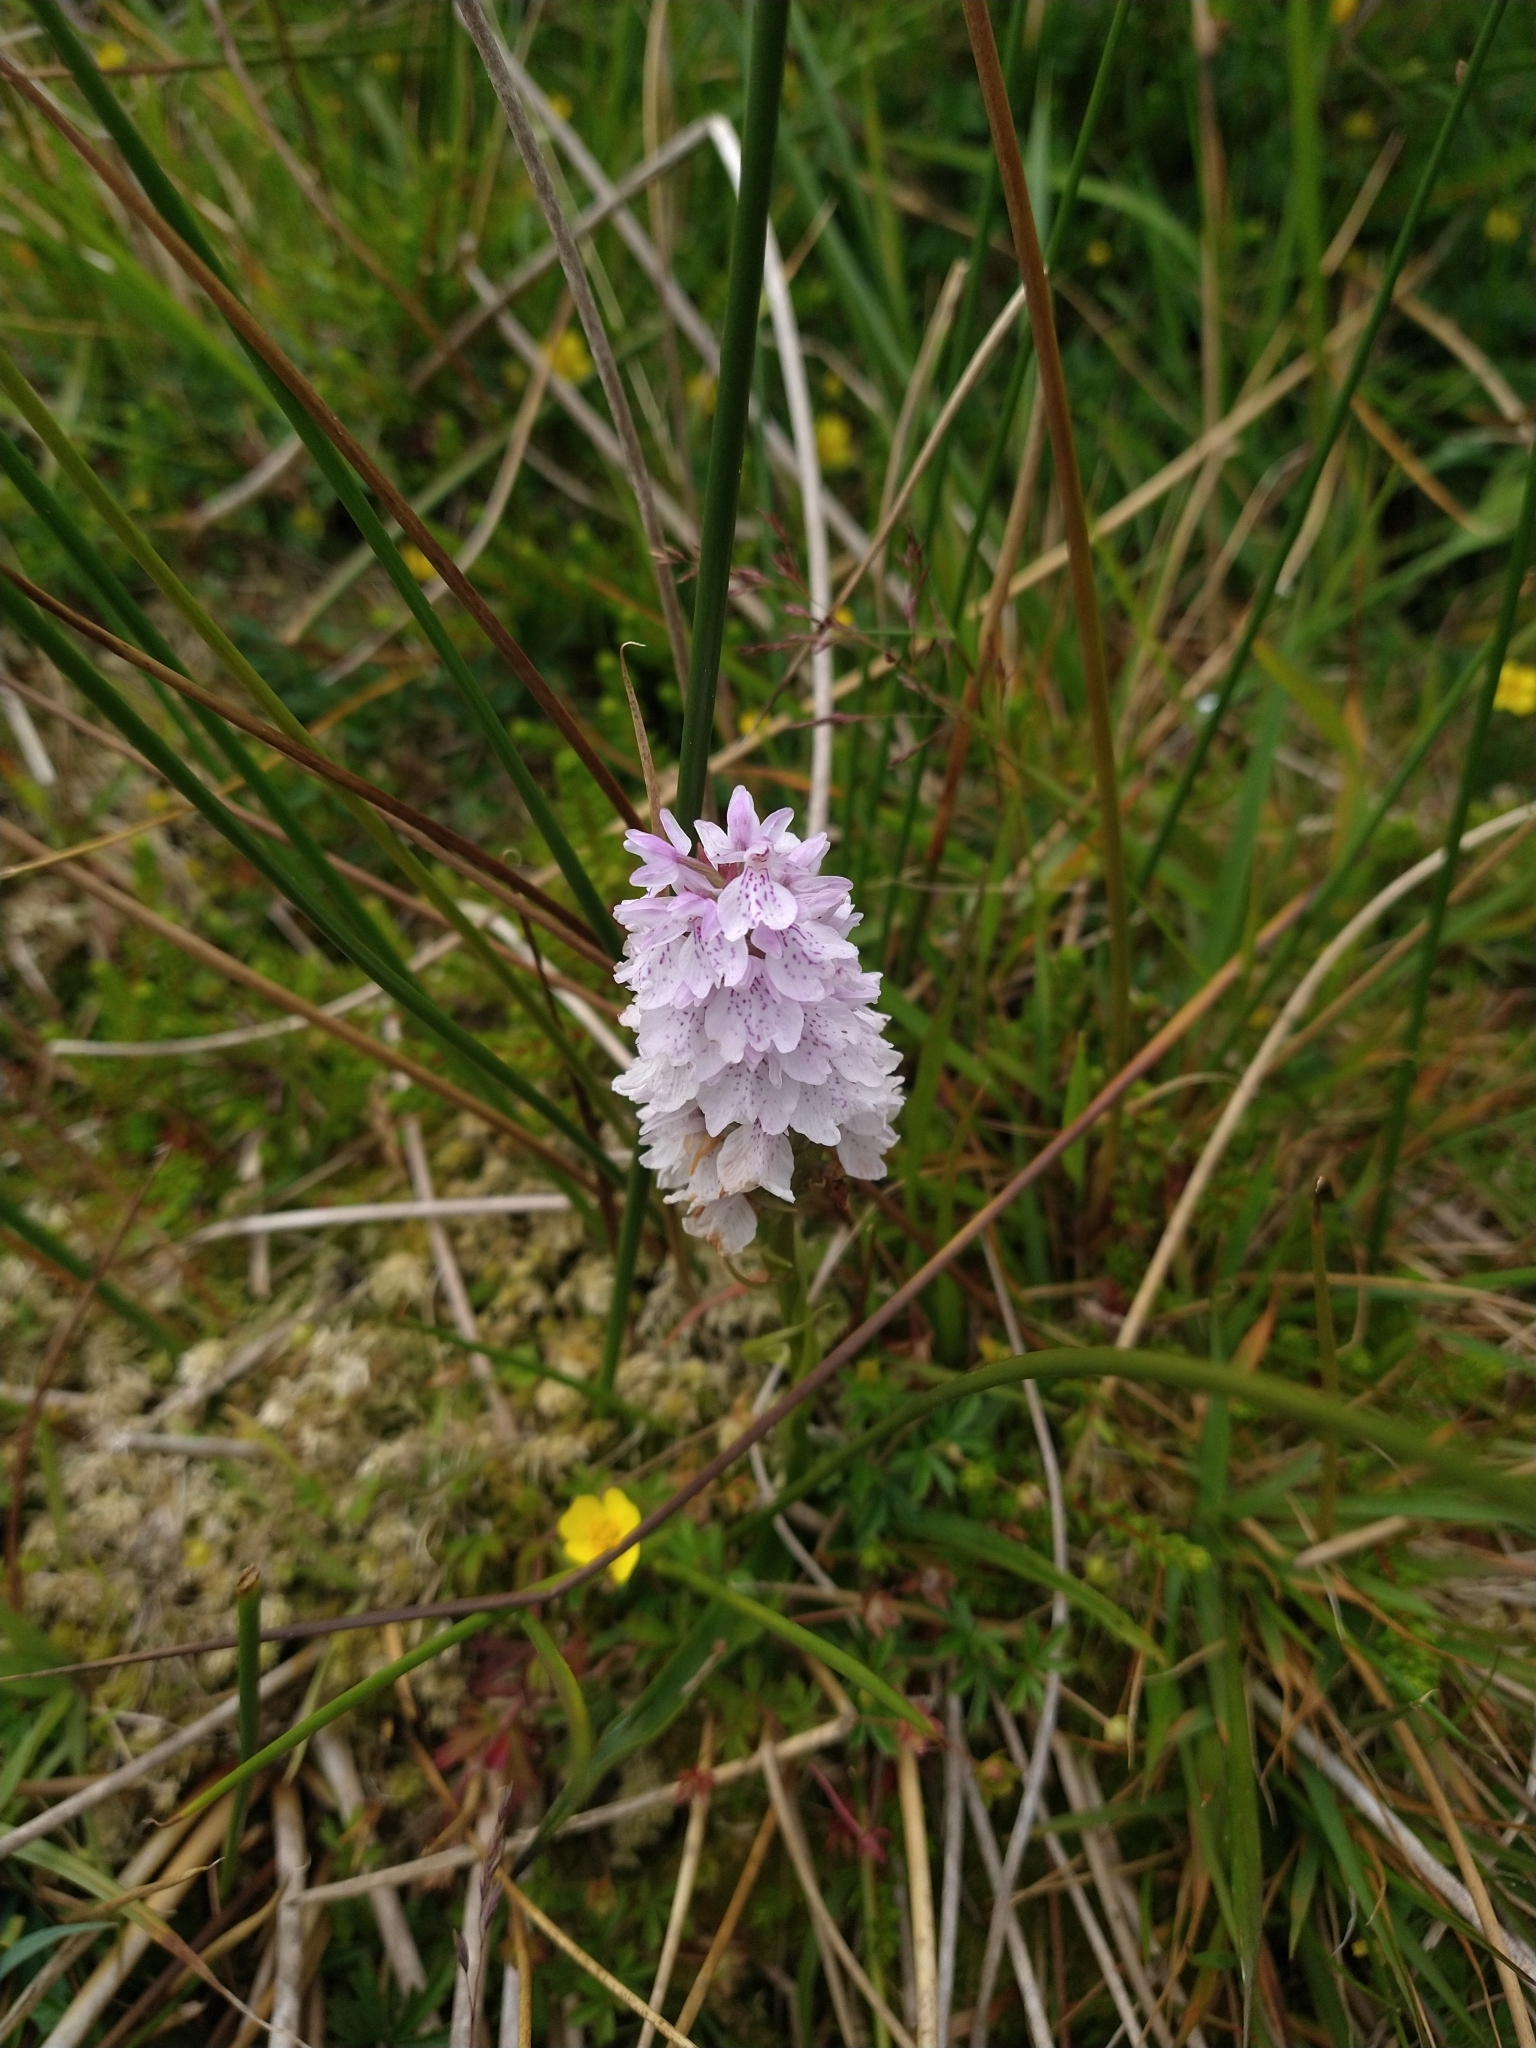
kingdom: Plantae
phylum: Tracheophyta
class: Liliopsida
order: Asparagales
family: Orchidaceae
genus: Dactylorhiza
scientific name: Dactylorhiza maculata
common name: Heath spotted-orchid
